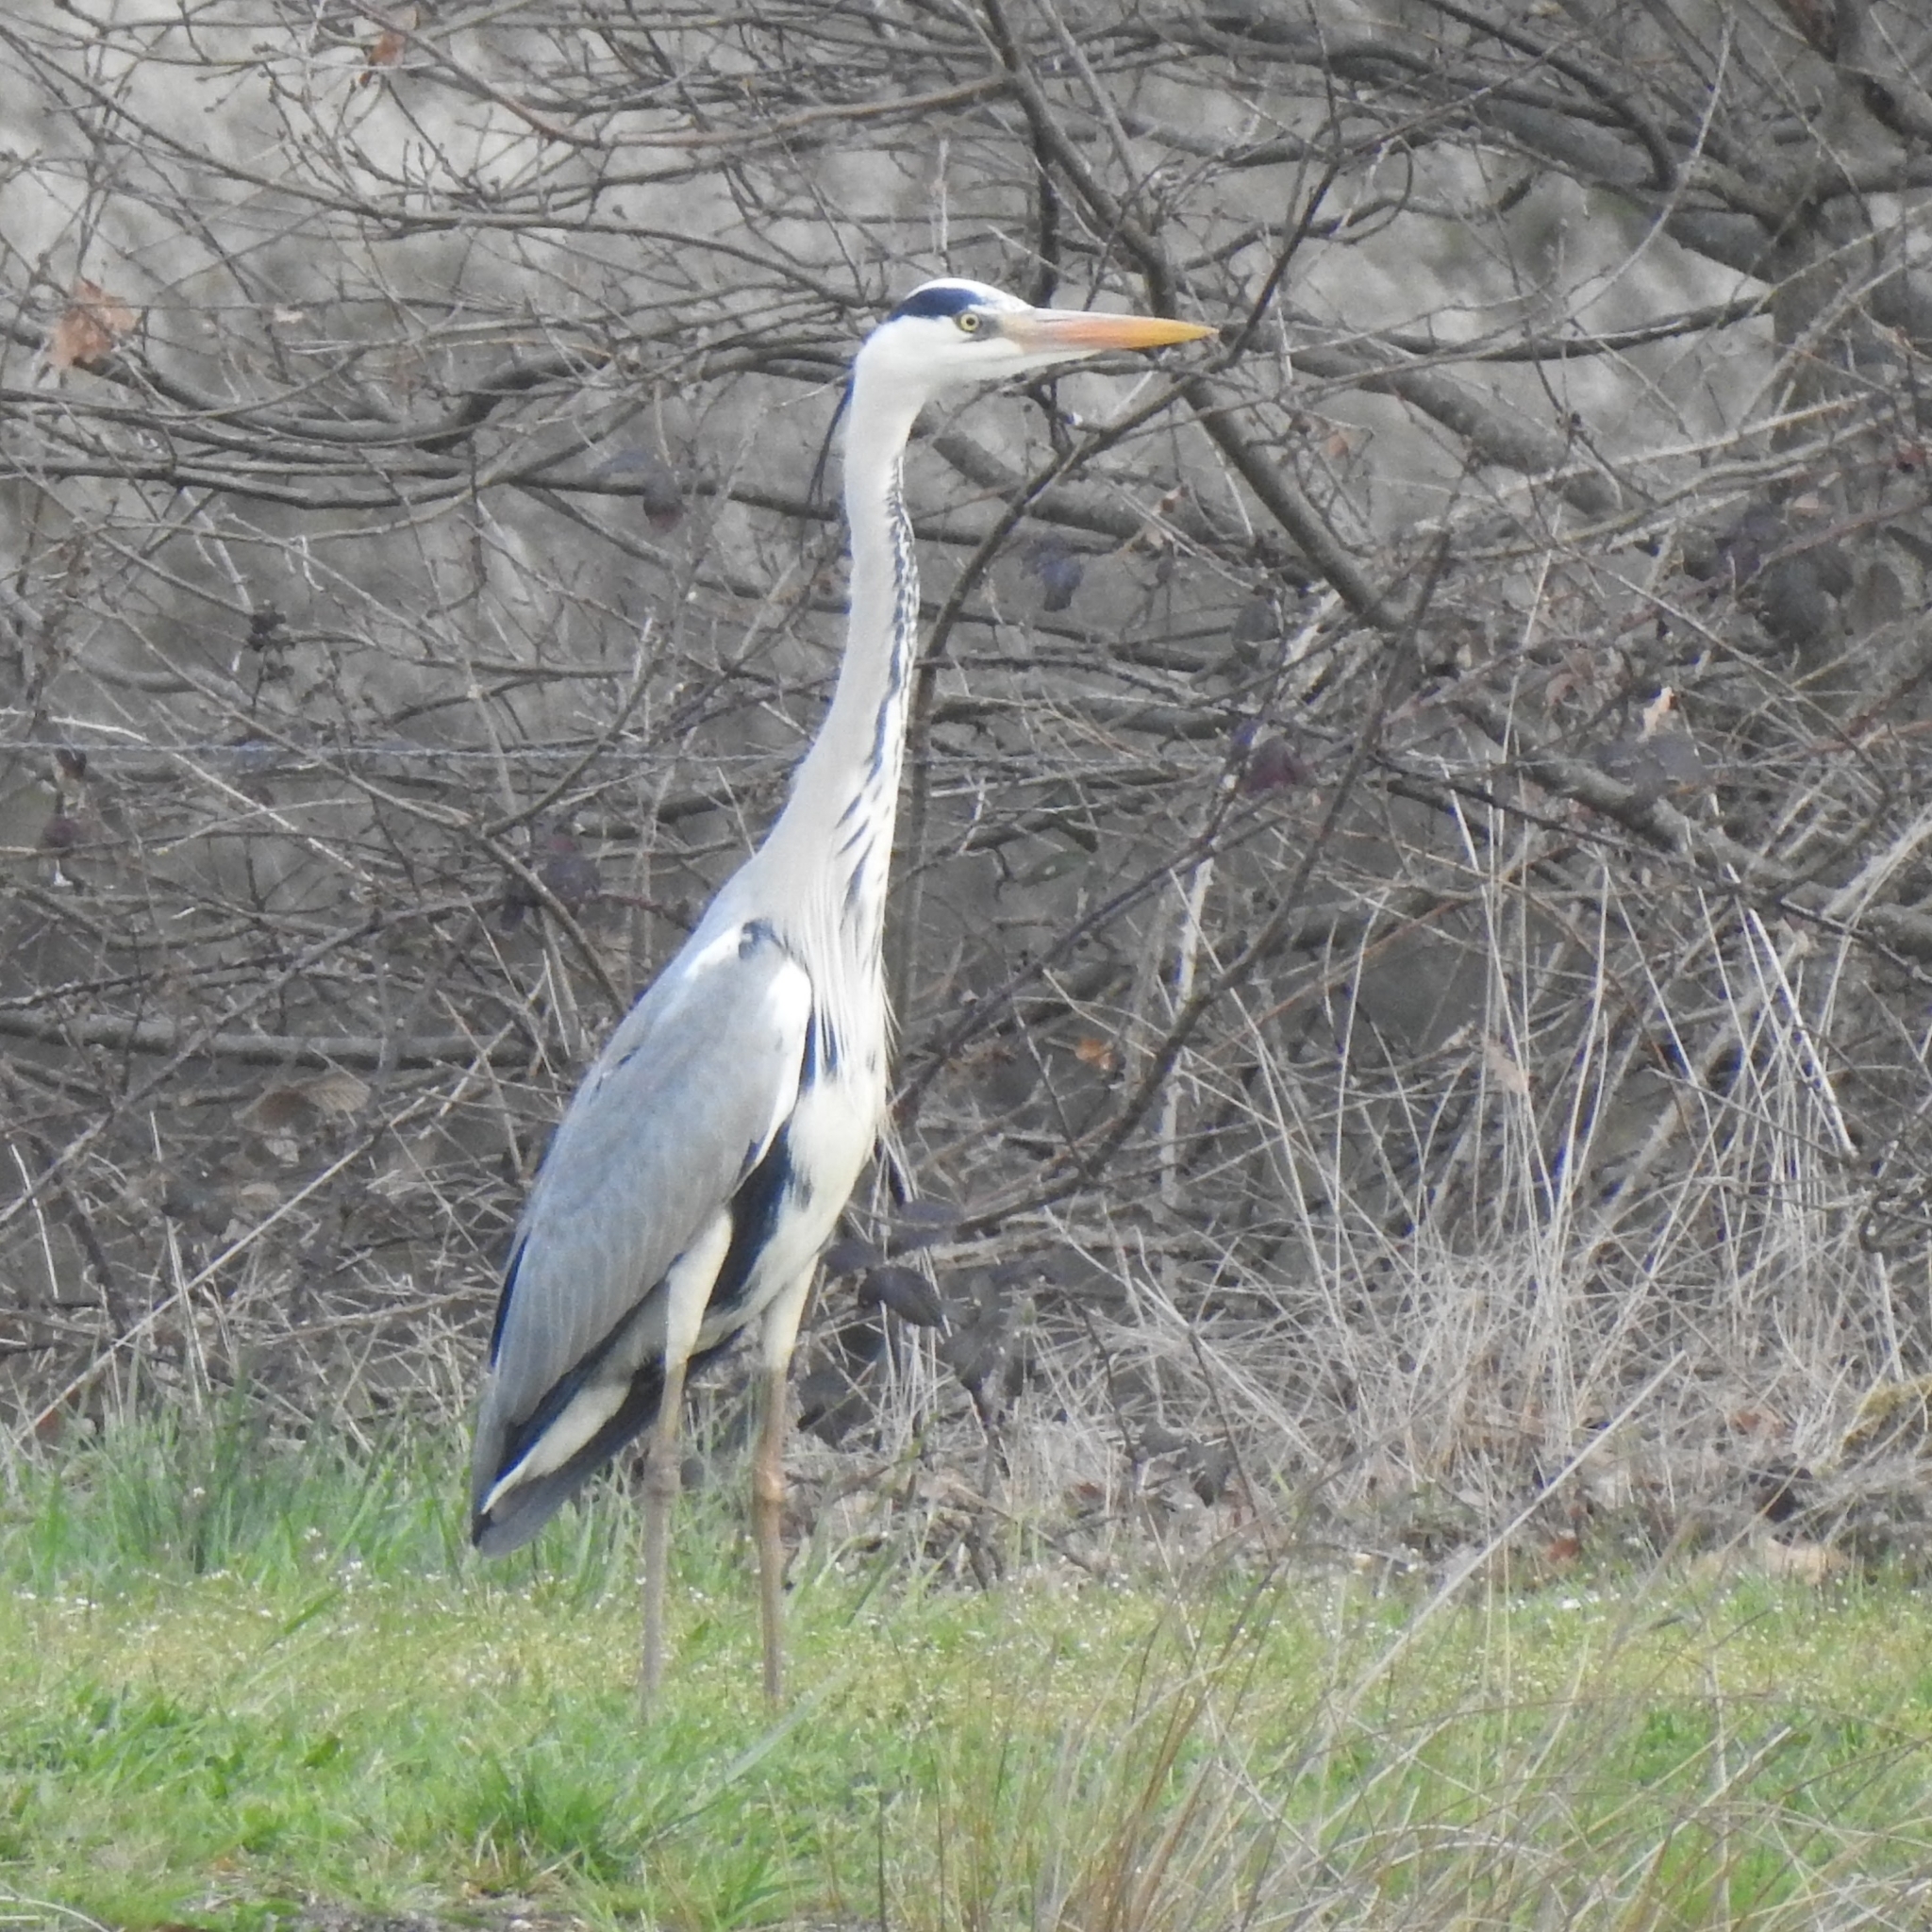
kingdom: Animalia
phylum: Chordata
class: Aves
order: Pelecaniformes
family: Ardeidae
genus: Ardea
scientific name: Ardea cinerea
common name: Grey heron
